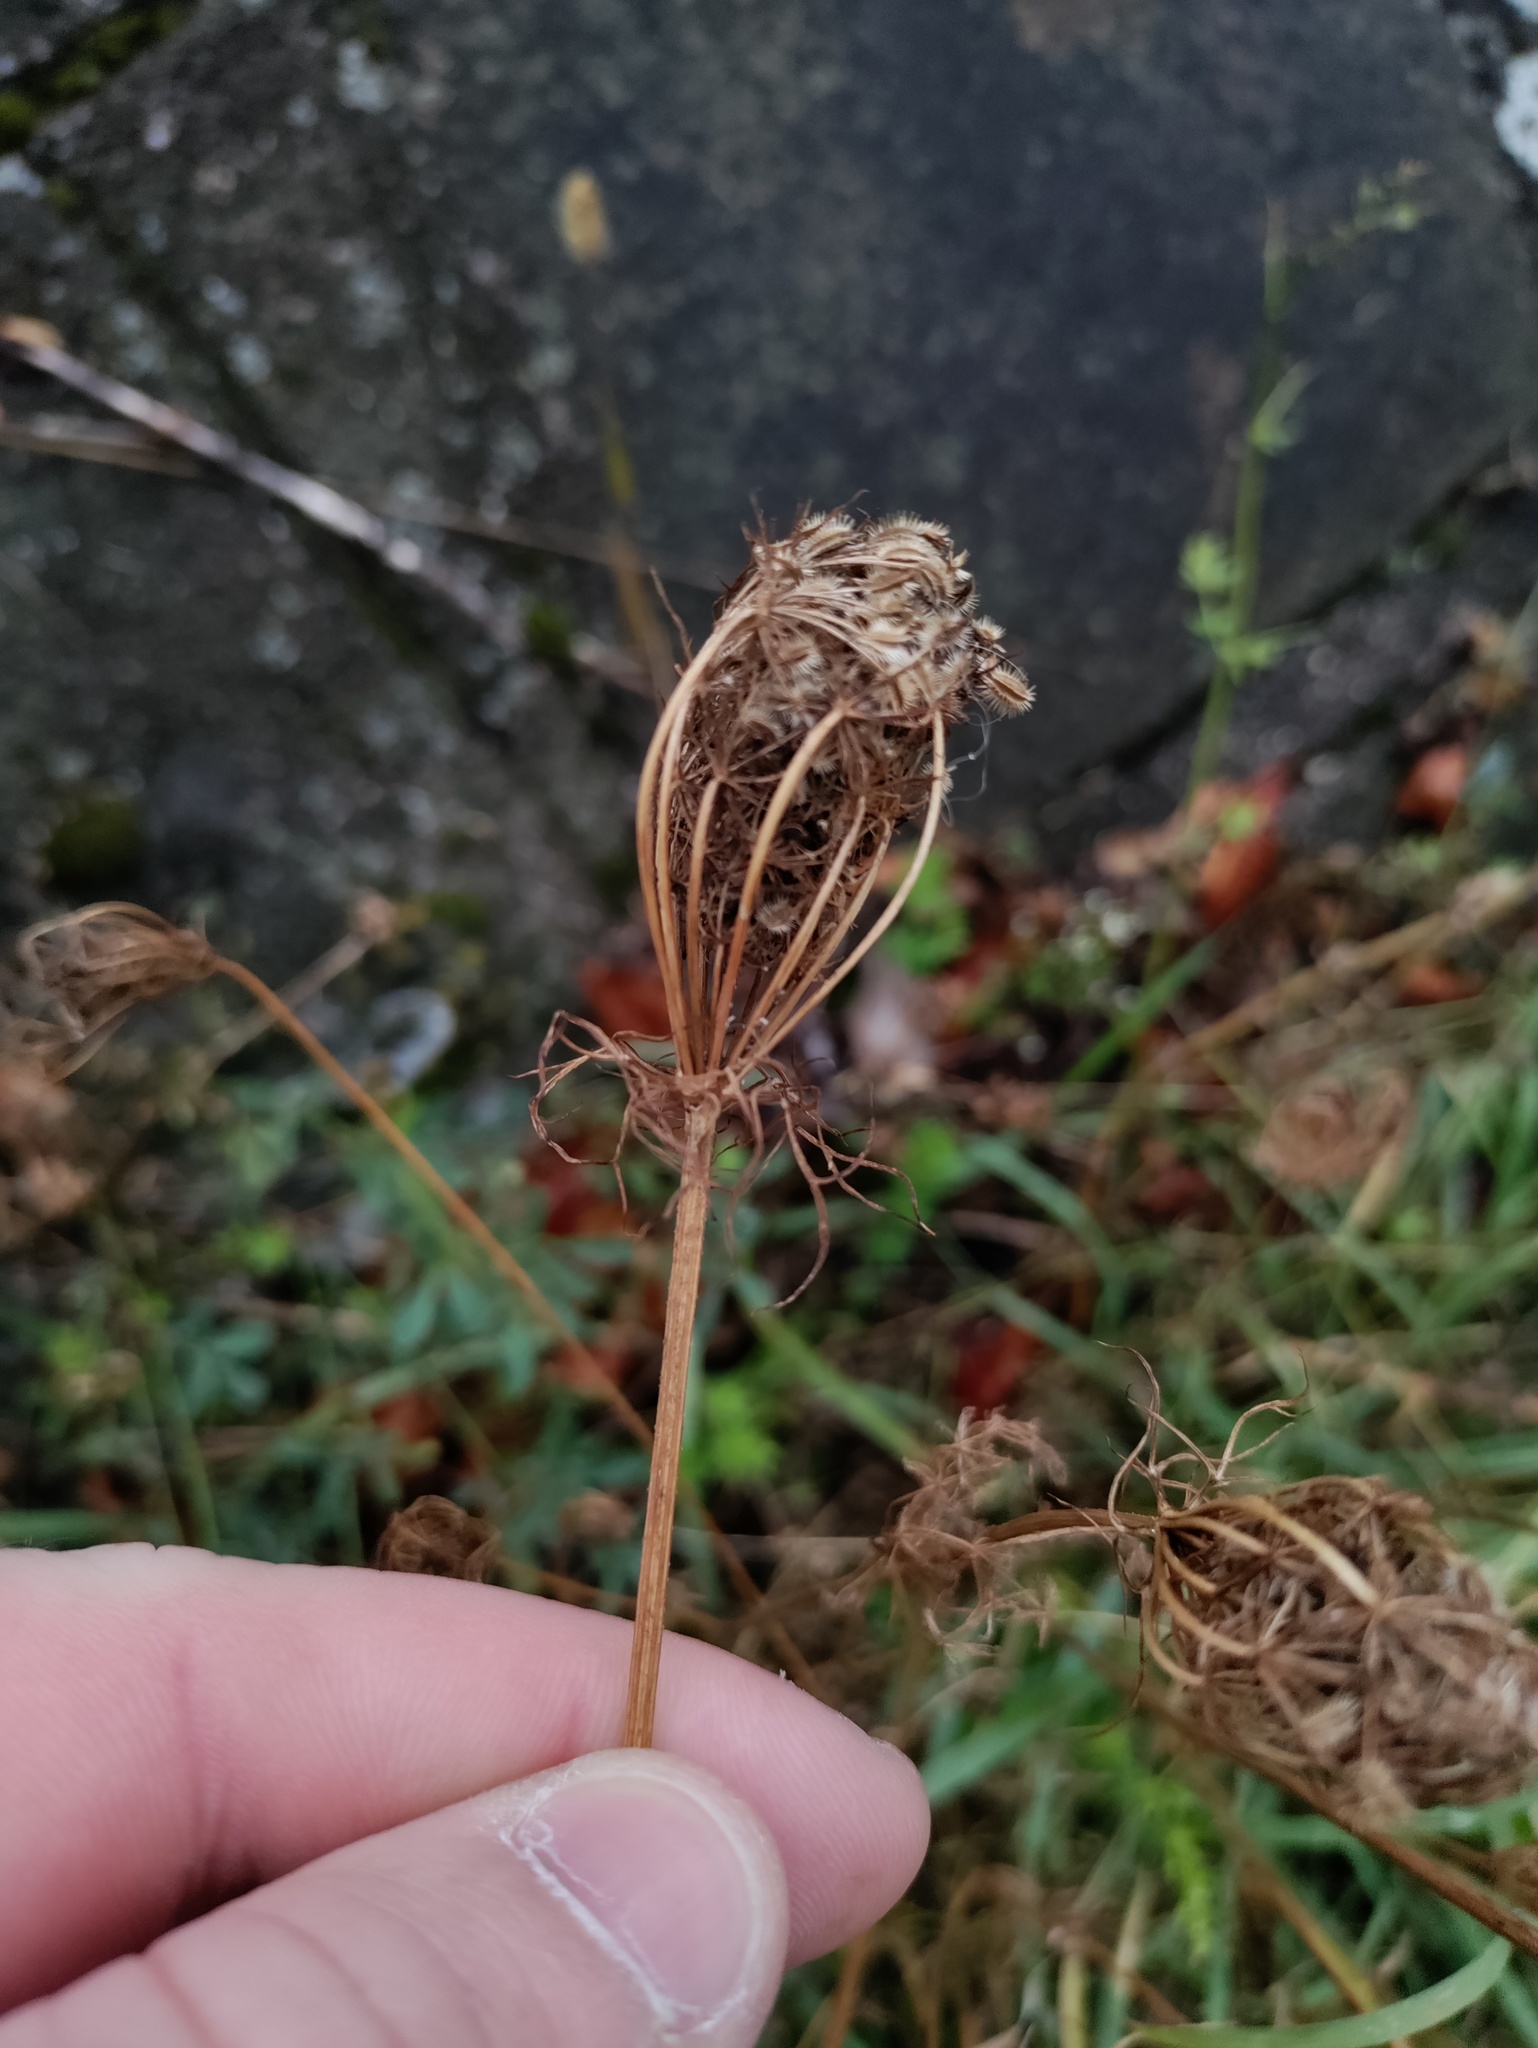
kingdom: Plantae
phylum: Tracheophyta
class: Magnoliopsida
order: Apiales
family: Apiaceae
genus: Daucus
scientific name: Daucus carota
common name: Wild carrot
